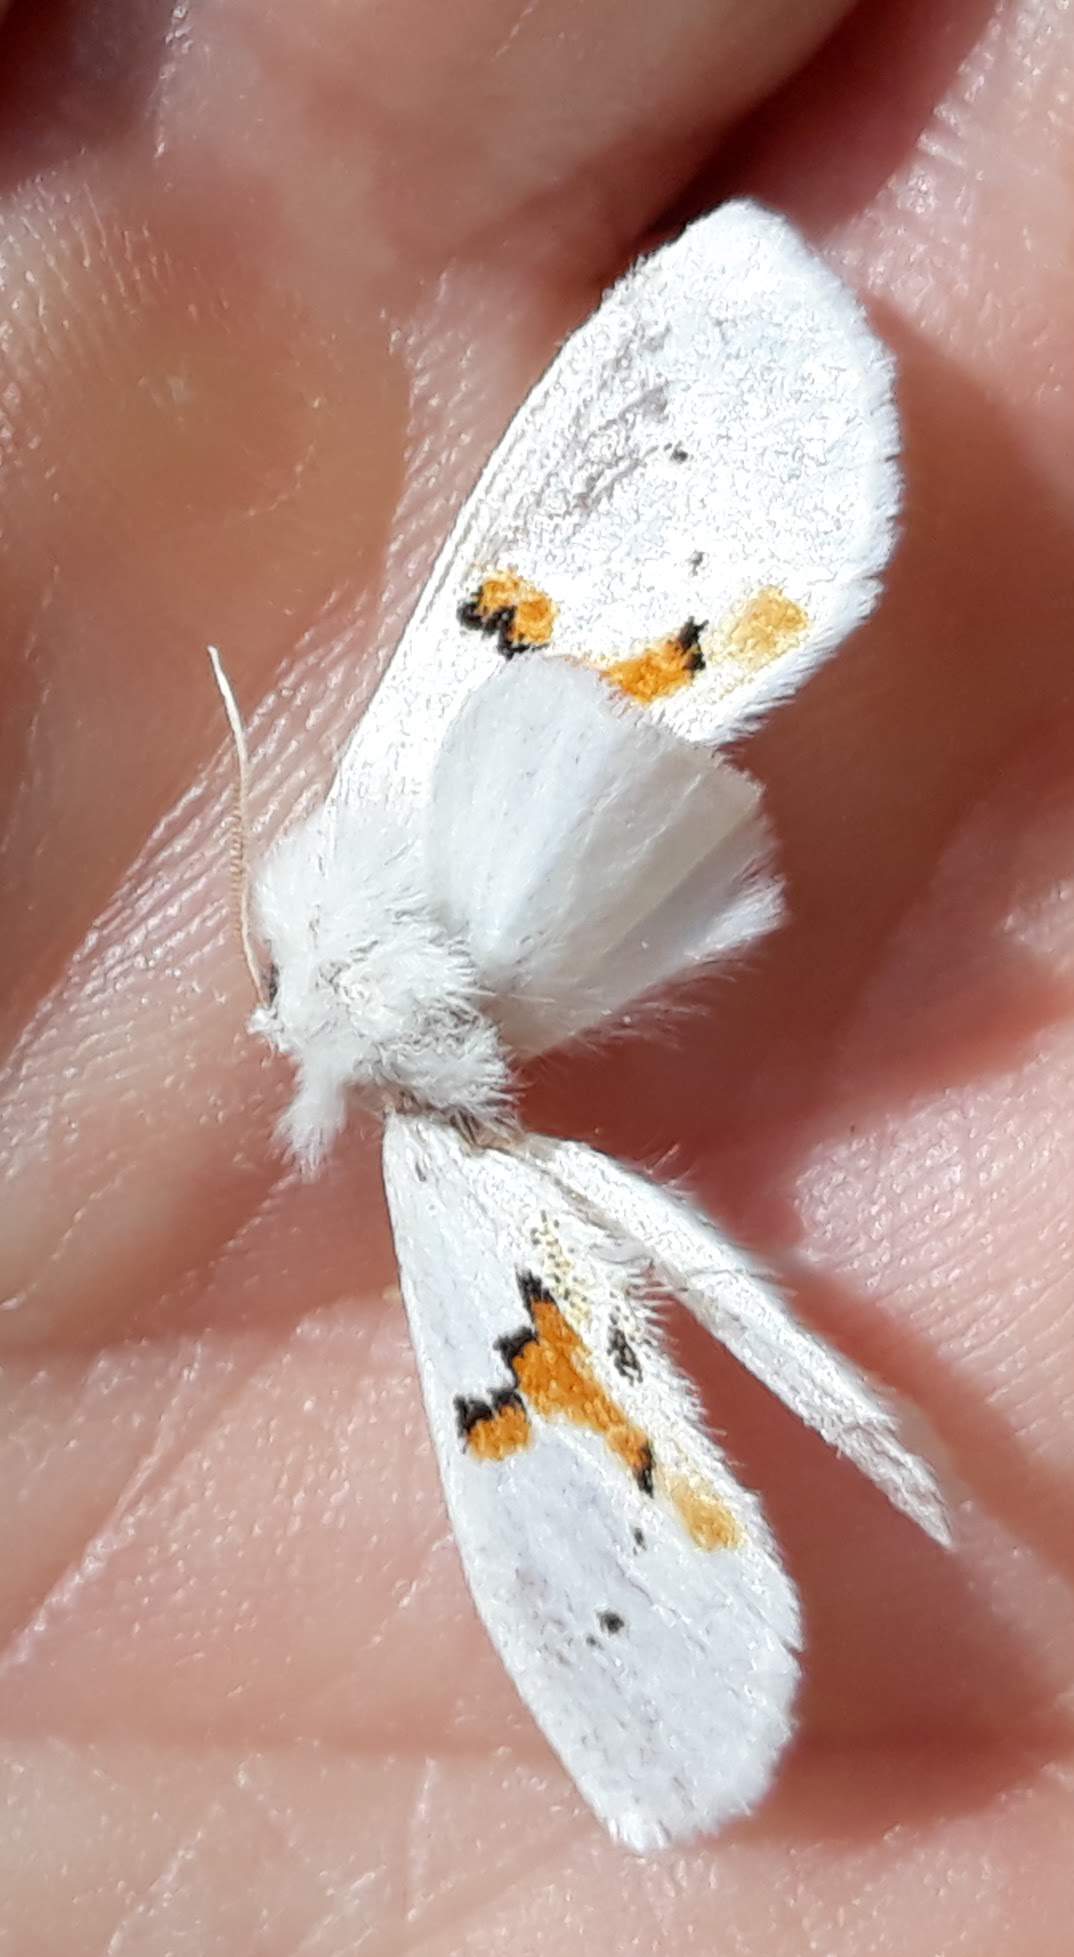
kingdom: Animalia
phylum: Arthropoda
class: Insecta
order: Lepidoptera
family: Notodontidae
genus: Leucodonta
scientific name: Leucodonta bicoloria
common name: White prominent
